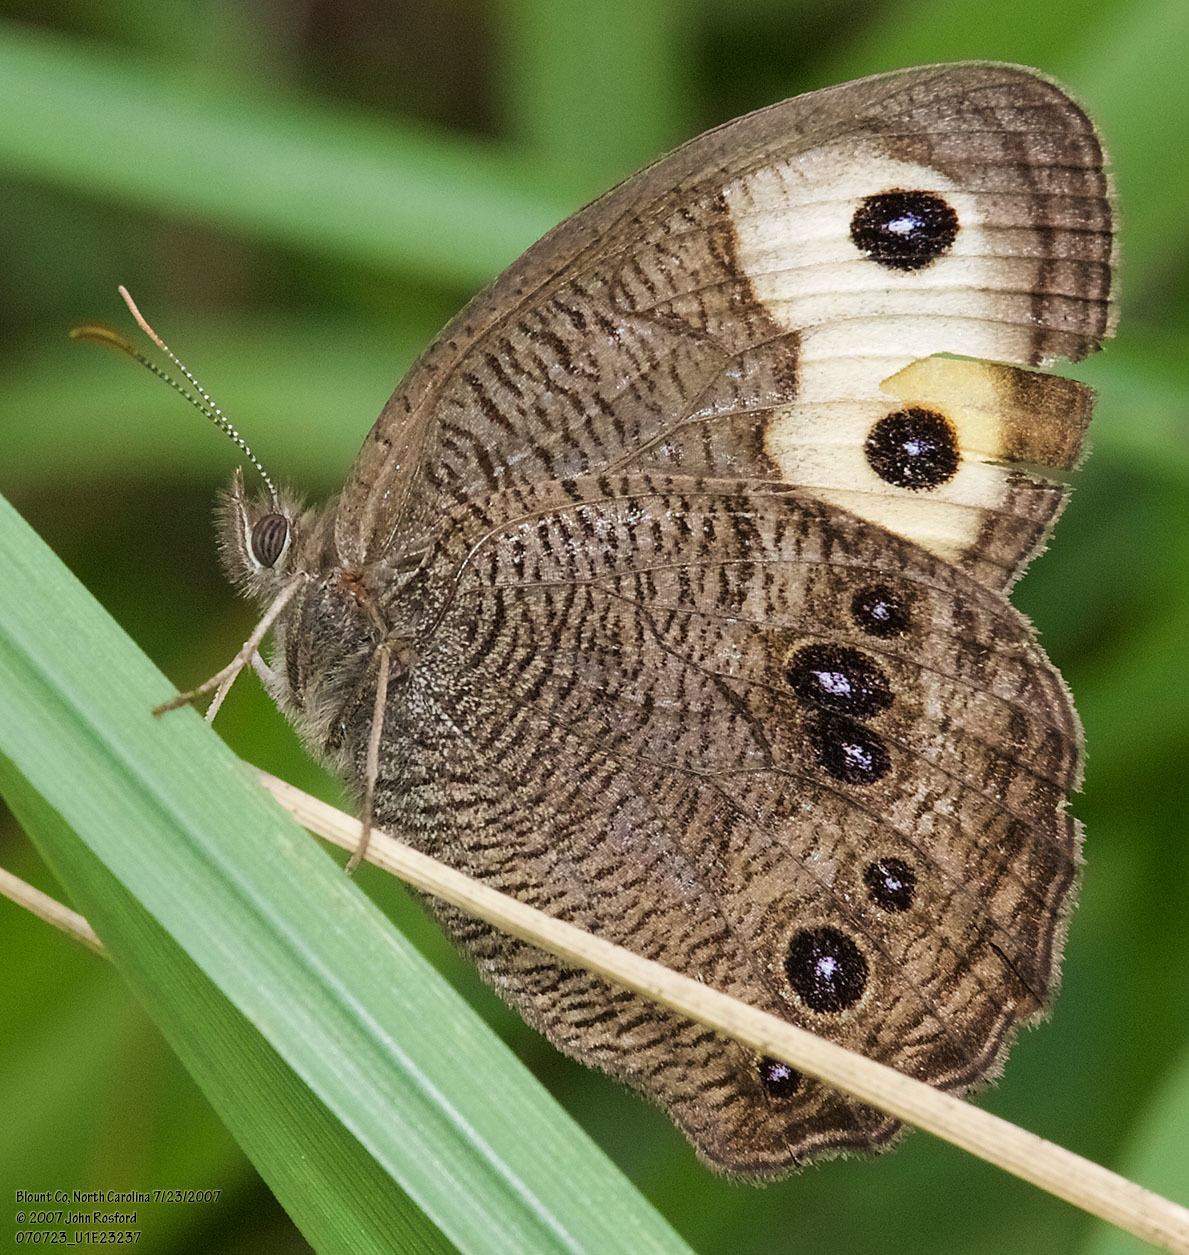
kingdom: Animalia
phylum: Arthropoda
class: Insecta
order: Lepidoptera
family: Nymphalidae
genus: Cercyonis
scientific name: Cercyonis pegala
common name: Common wood-nymph
